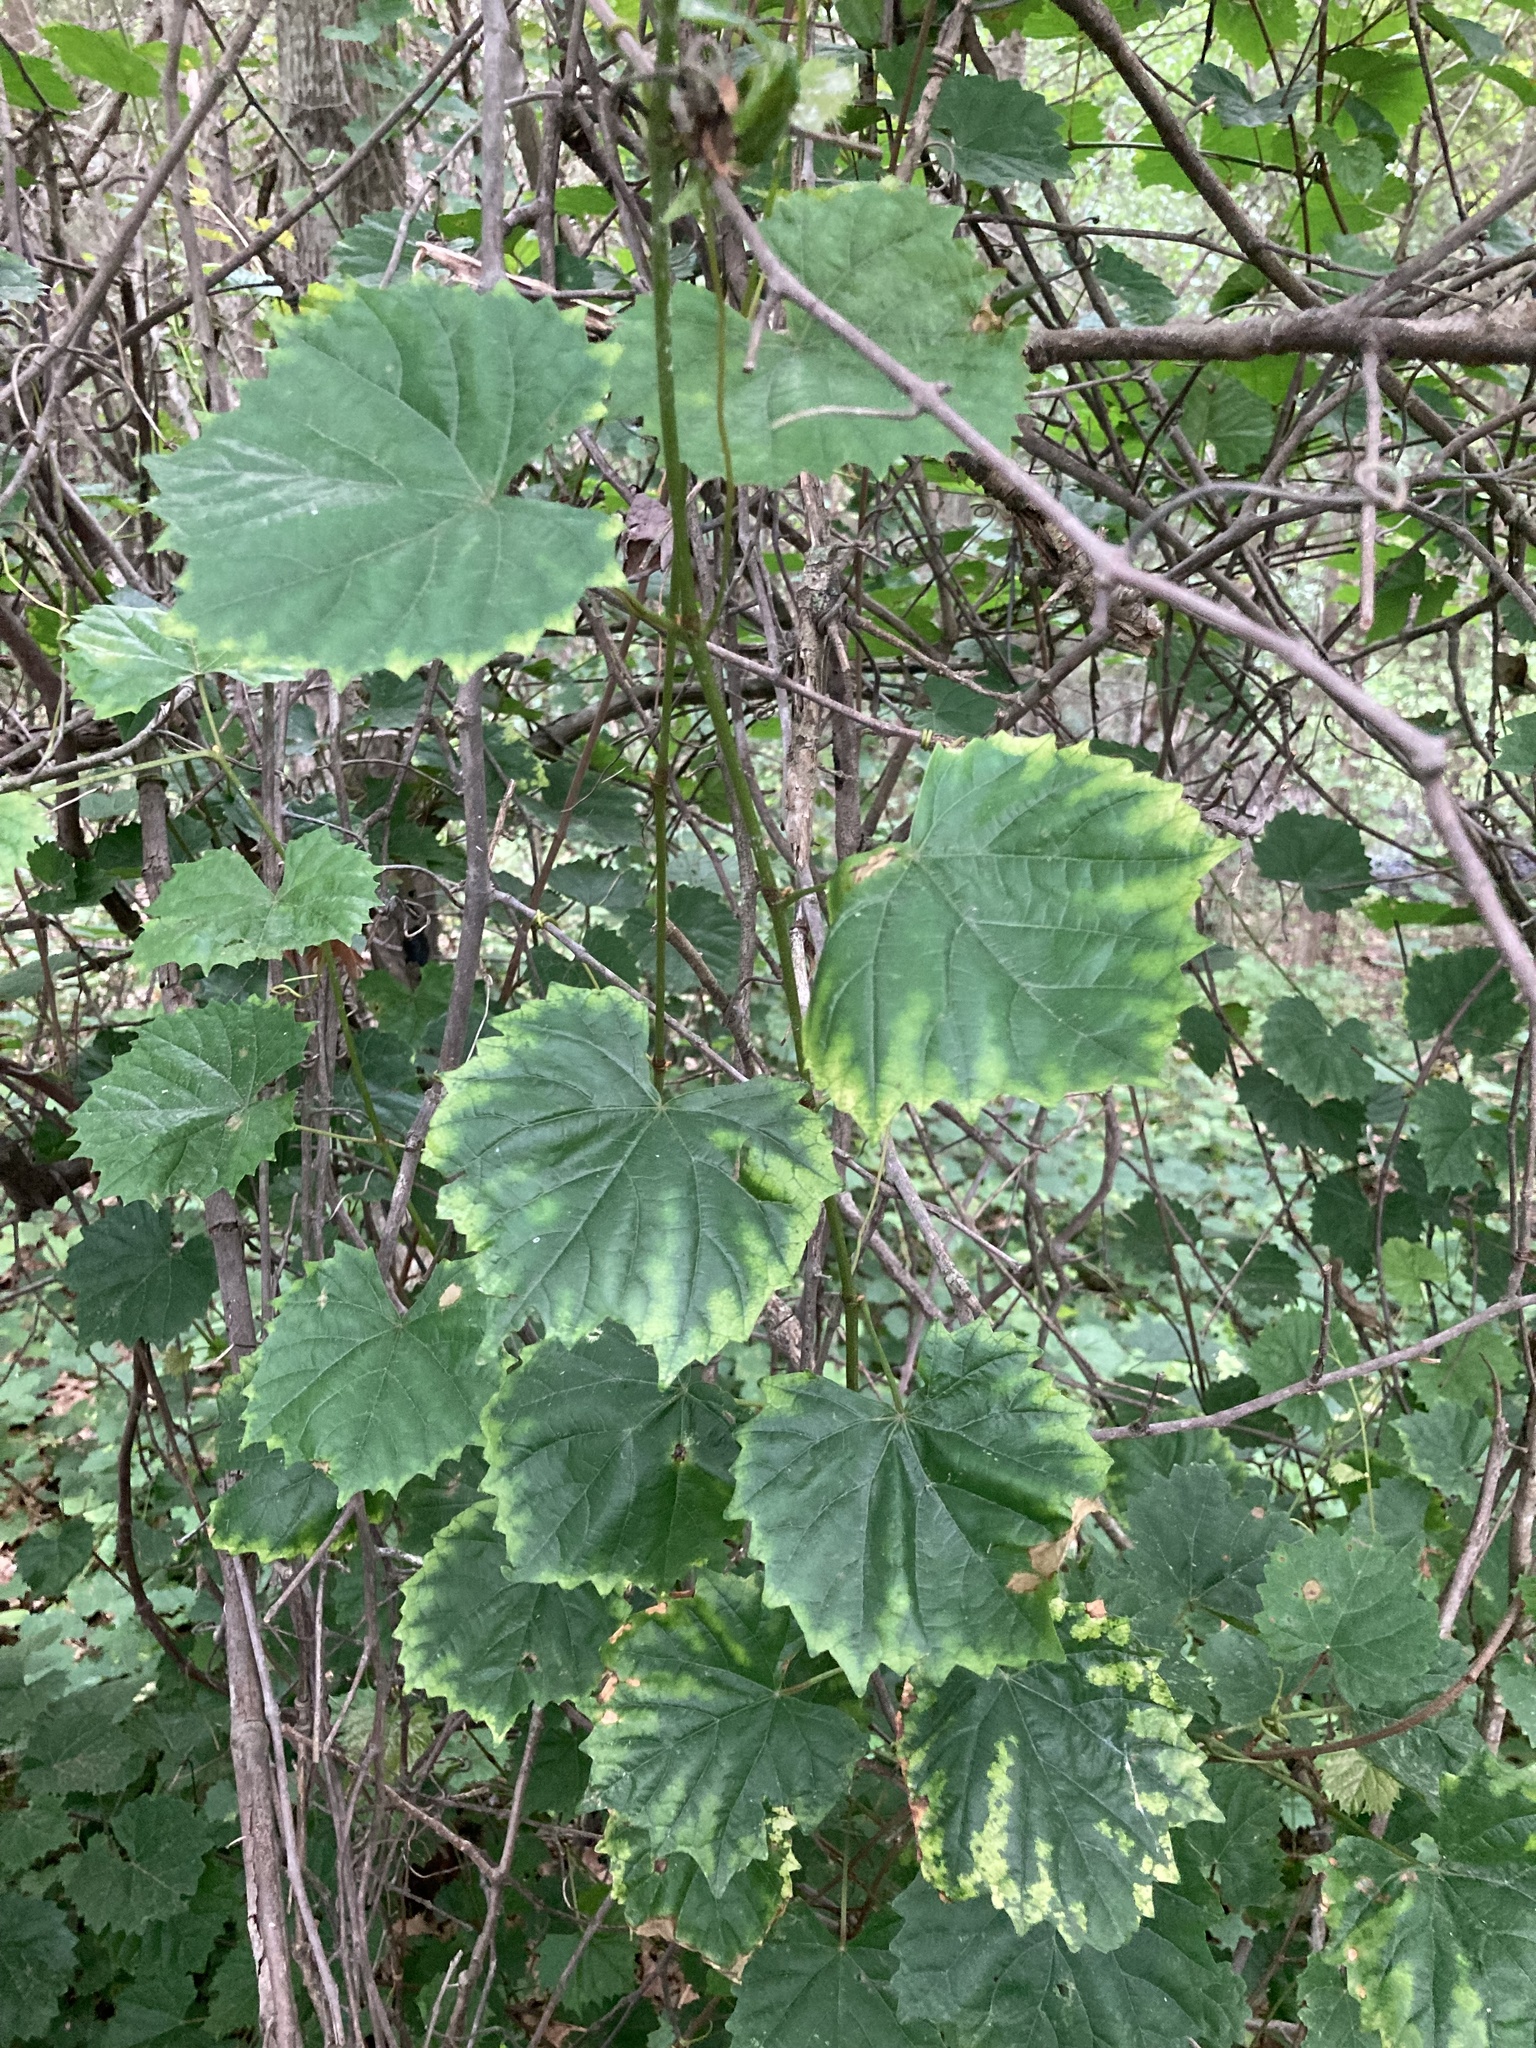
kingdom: Plantae
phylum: Tracheophyta
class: Magnoliopsida
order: Vitales
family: Vitaceae
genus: Vitis
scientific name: Vitis rotundifolia
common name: Muscadine grape
